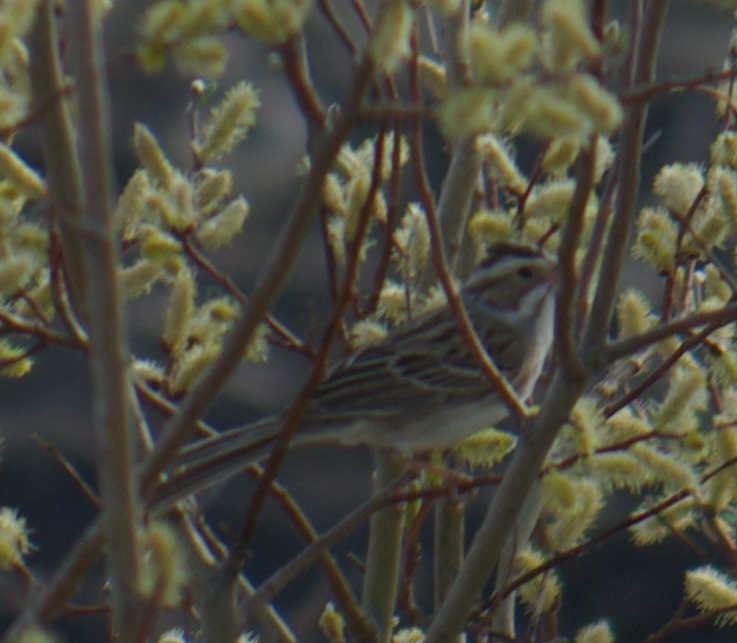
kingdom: Animalia
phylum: Chordata
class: Aves
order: Passeriformes
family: Passerellidae
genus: Spizella
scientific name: Spizella pallida
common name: Clay-colored sparrow
